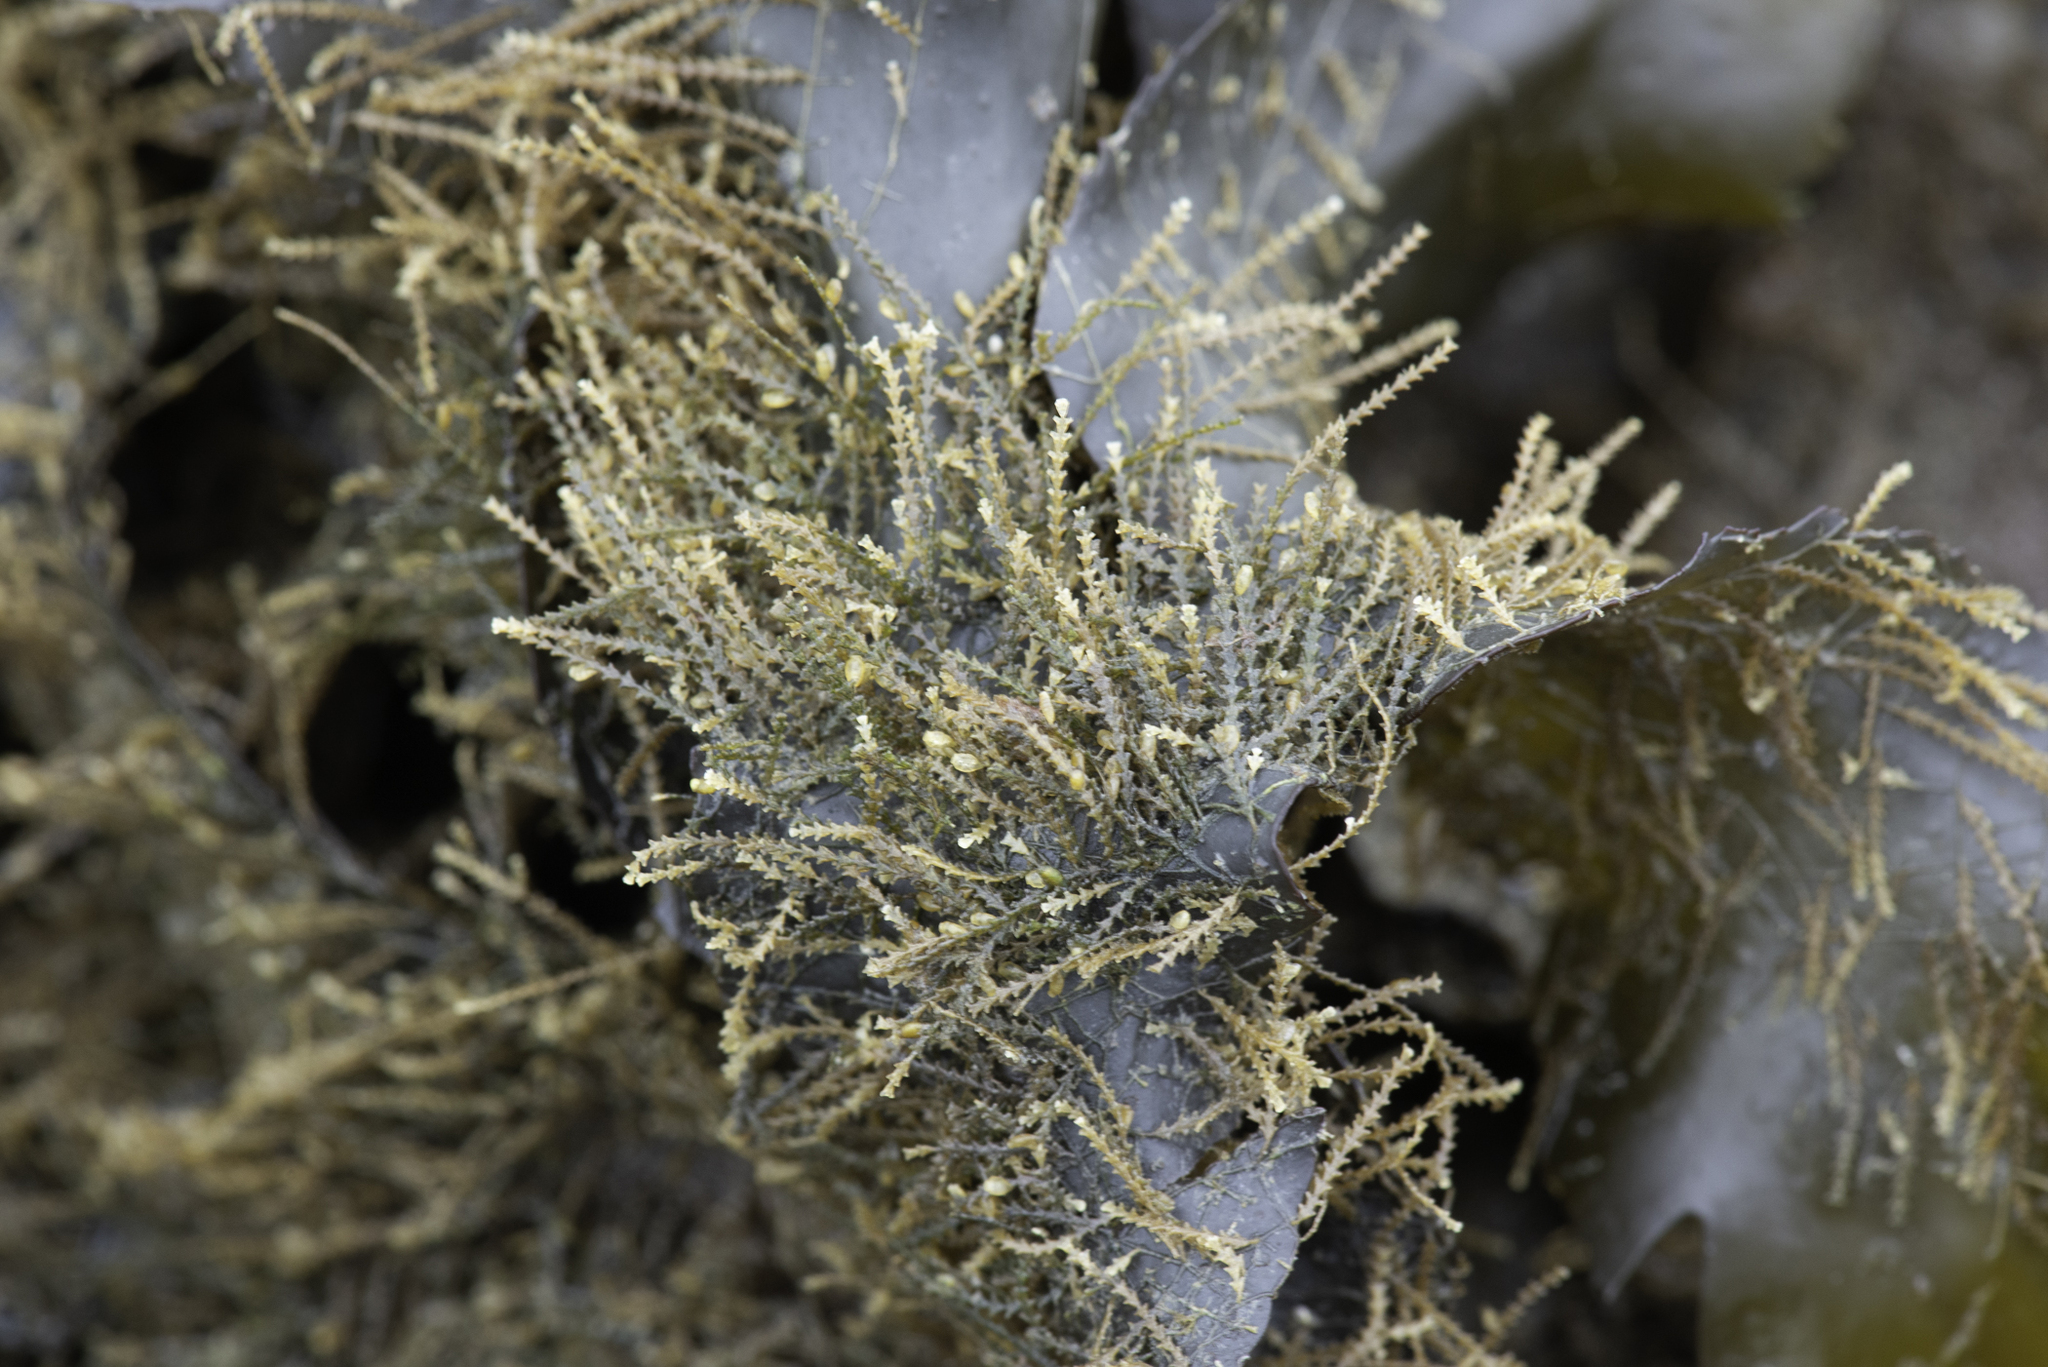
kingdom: Animalia
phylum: Cnidaria
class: Hydrozoa
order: Leptothecata
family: Sertulariidae
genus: Dynamena
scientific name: Dynamena pumila
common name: Sea oak
